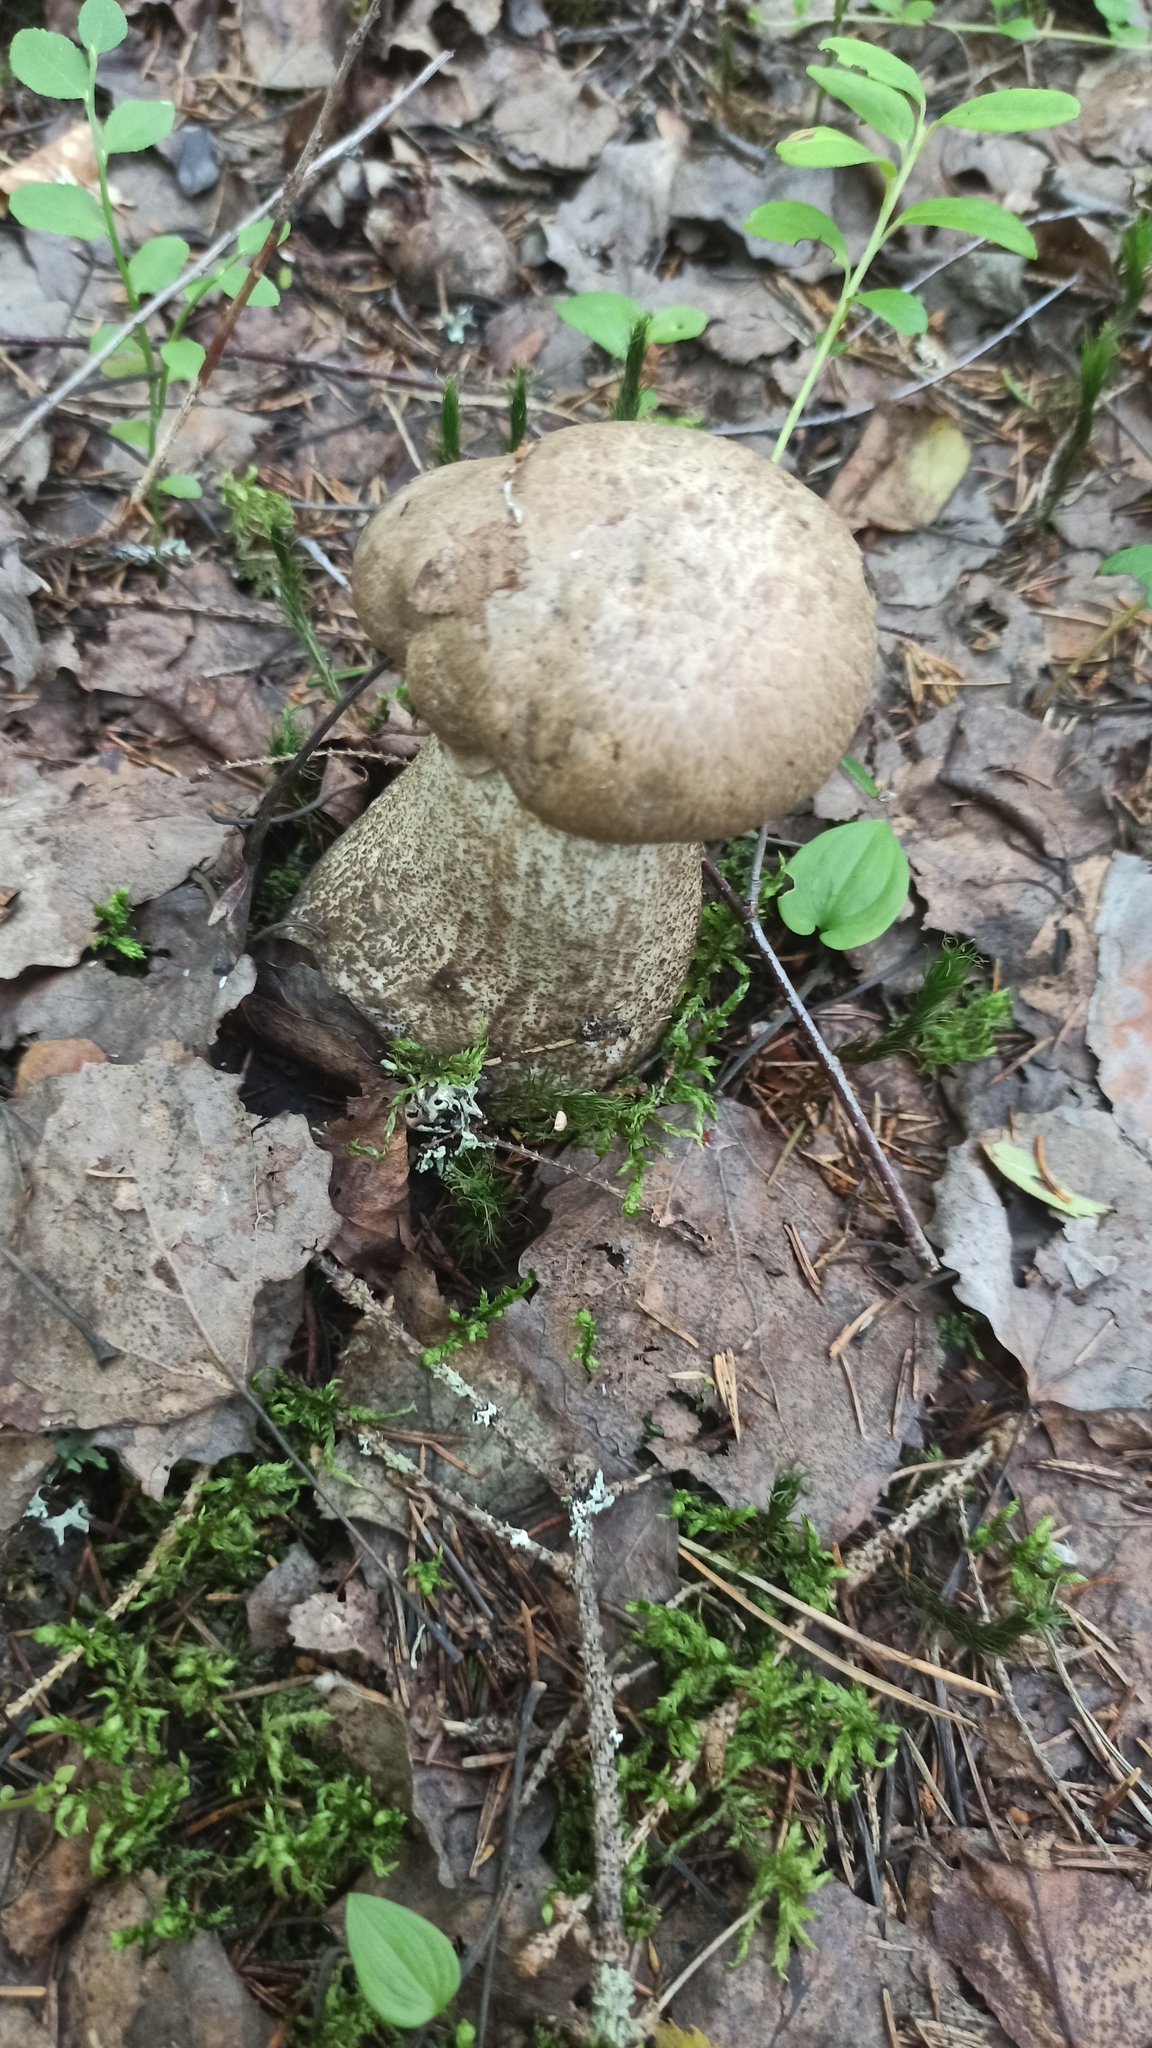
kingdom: Fungi
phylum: Basidiomycota
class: Agaricomycetes
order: Boletales
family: Boletaceae
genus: Leccinum
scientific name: Leccinum duriusculum
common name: Slate bolete
